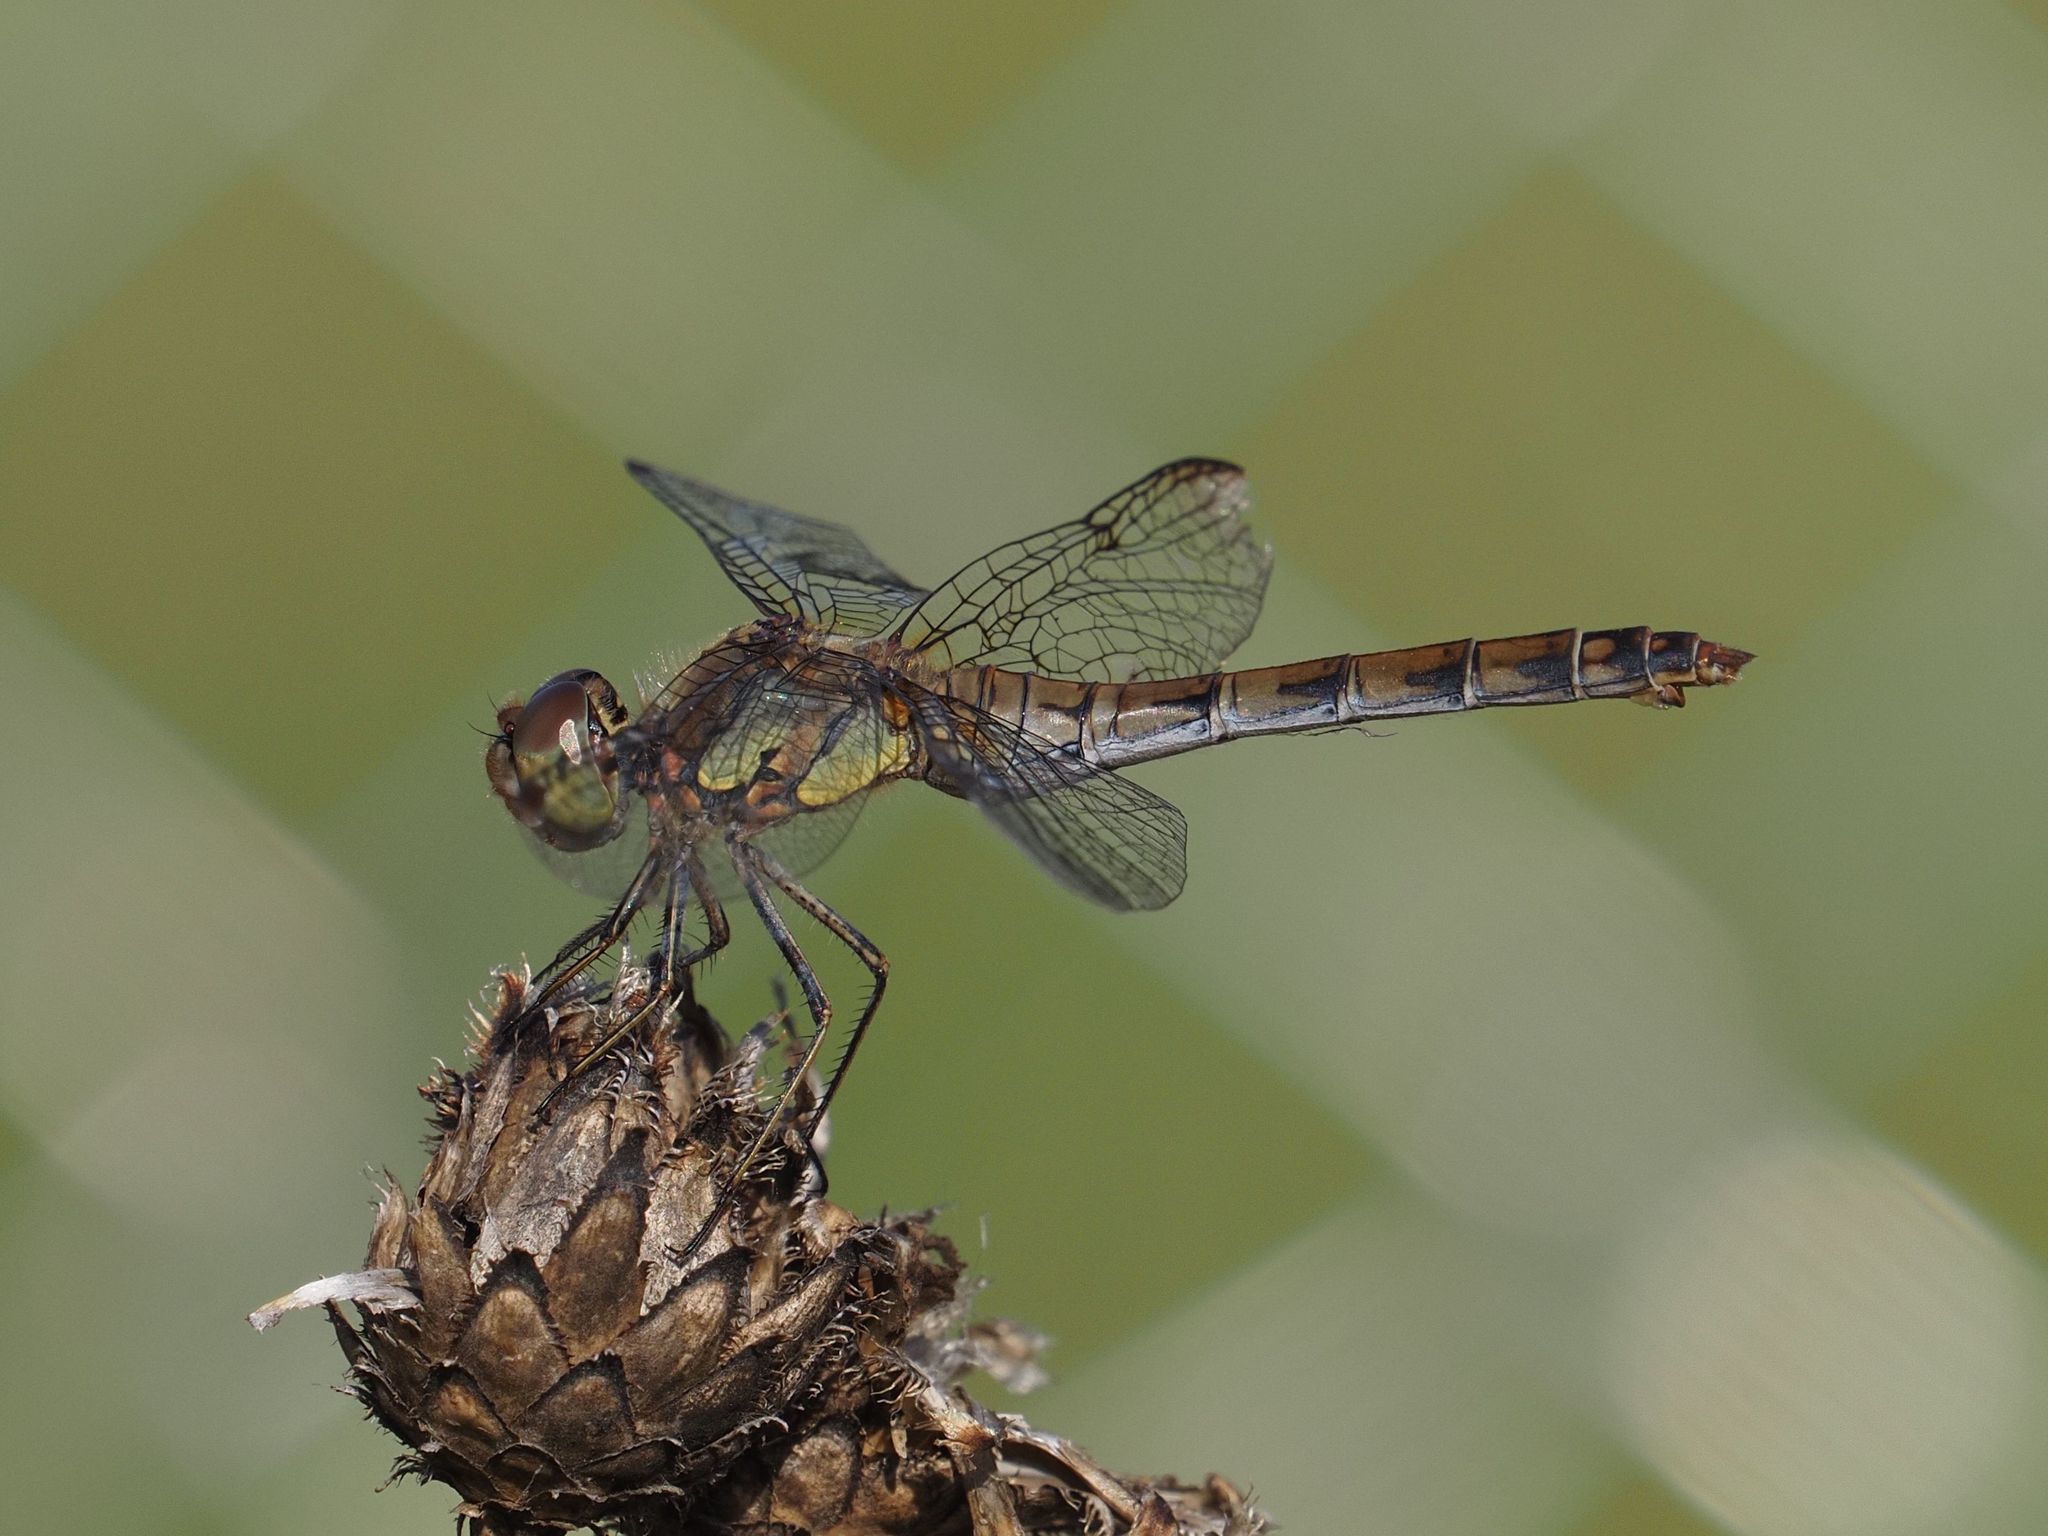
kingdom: Animalia
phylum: Arthropoda
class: Insecta
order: Odonata
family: Libellulidae
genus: Sympetrum
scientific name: Sympetrum striolatum
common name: Common darter
